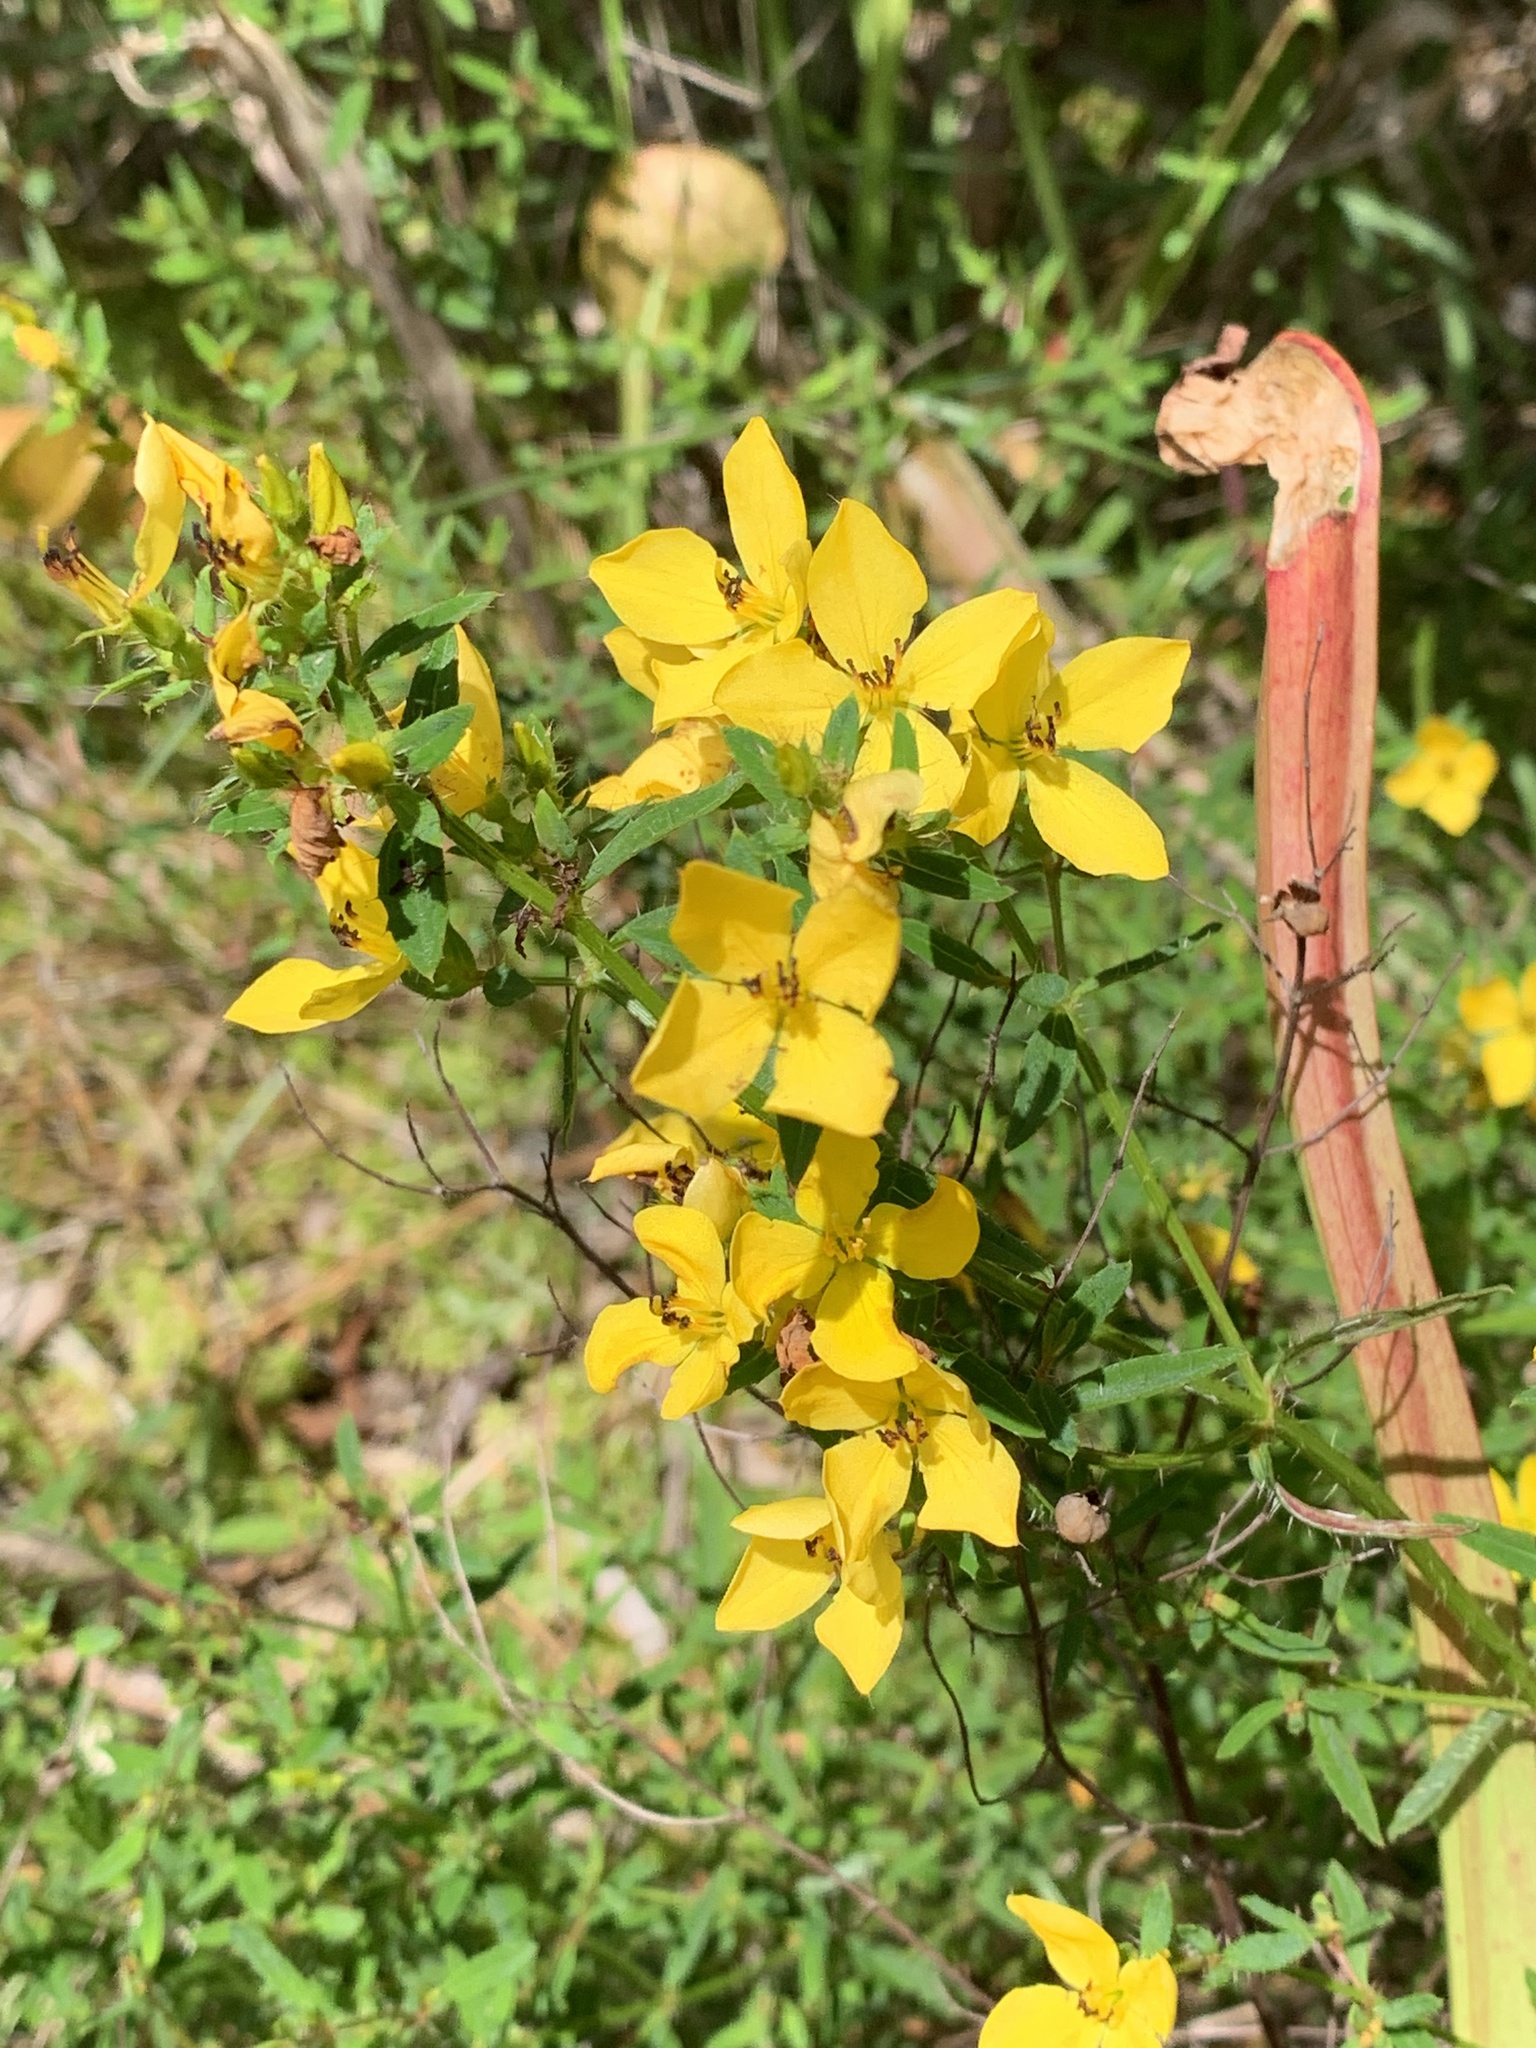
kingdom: Plantae
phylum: Tracheophyta
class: Magnoliopsida
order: Myrtales
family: Melastomataceae
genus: Rhexia
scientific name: Rhexia lutea
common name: Golden meadow-beauty
